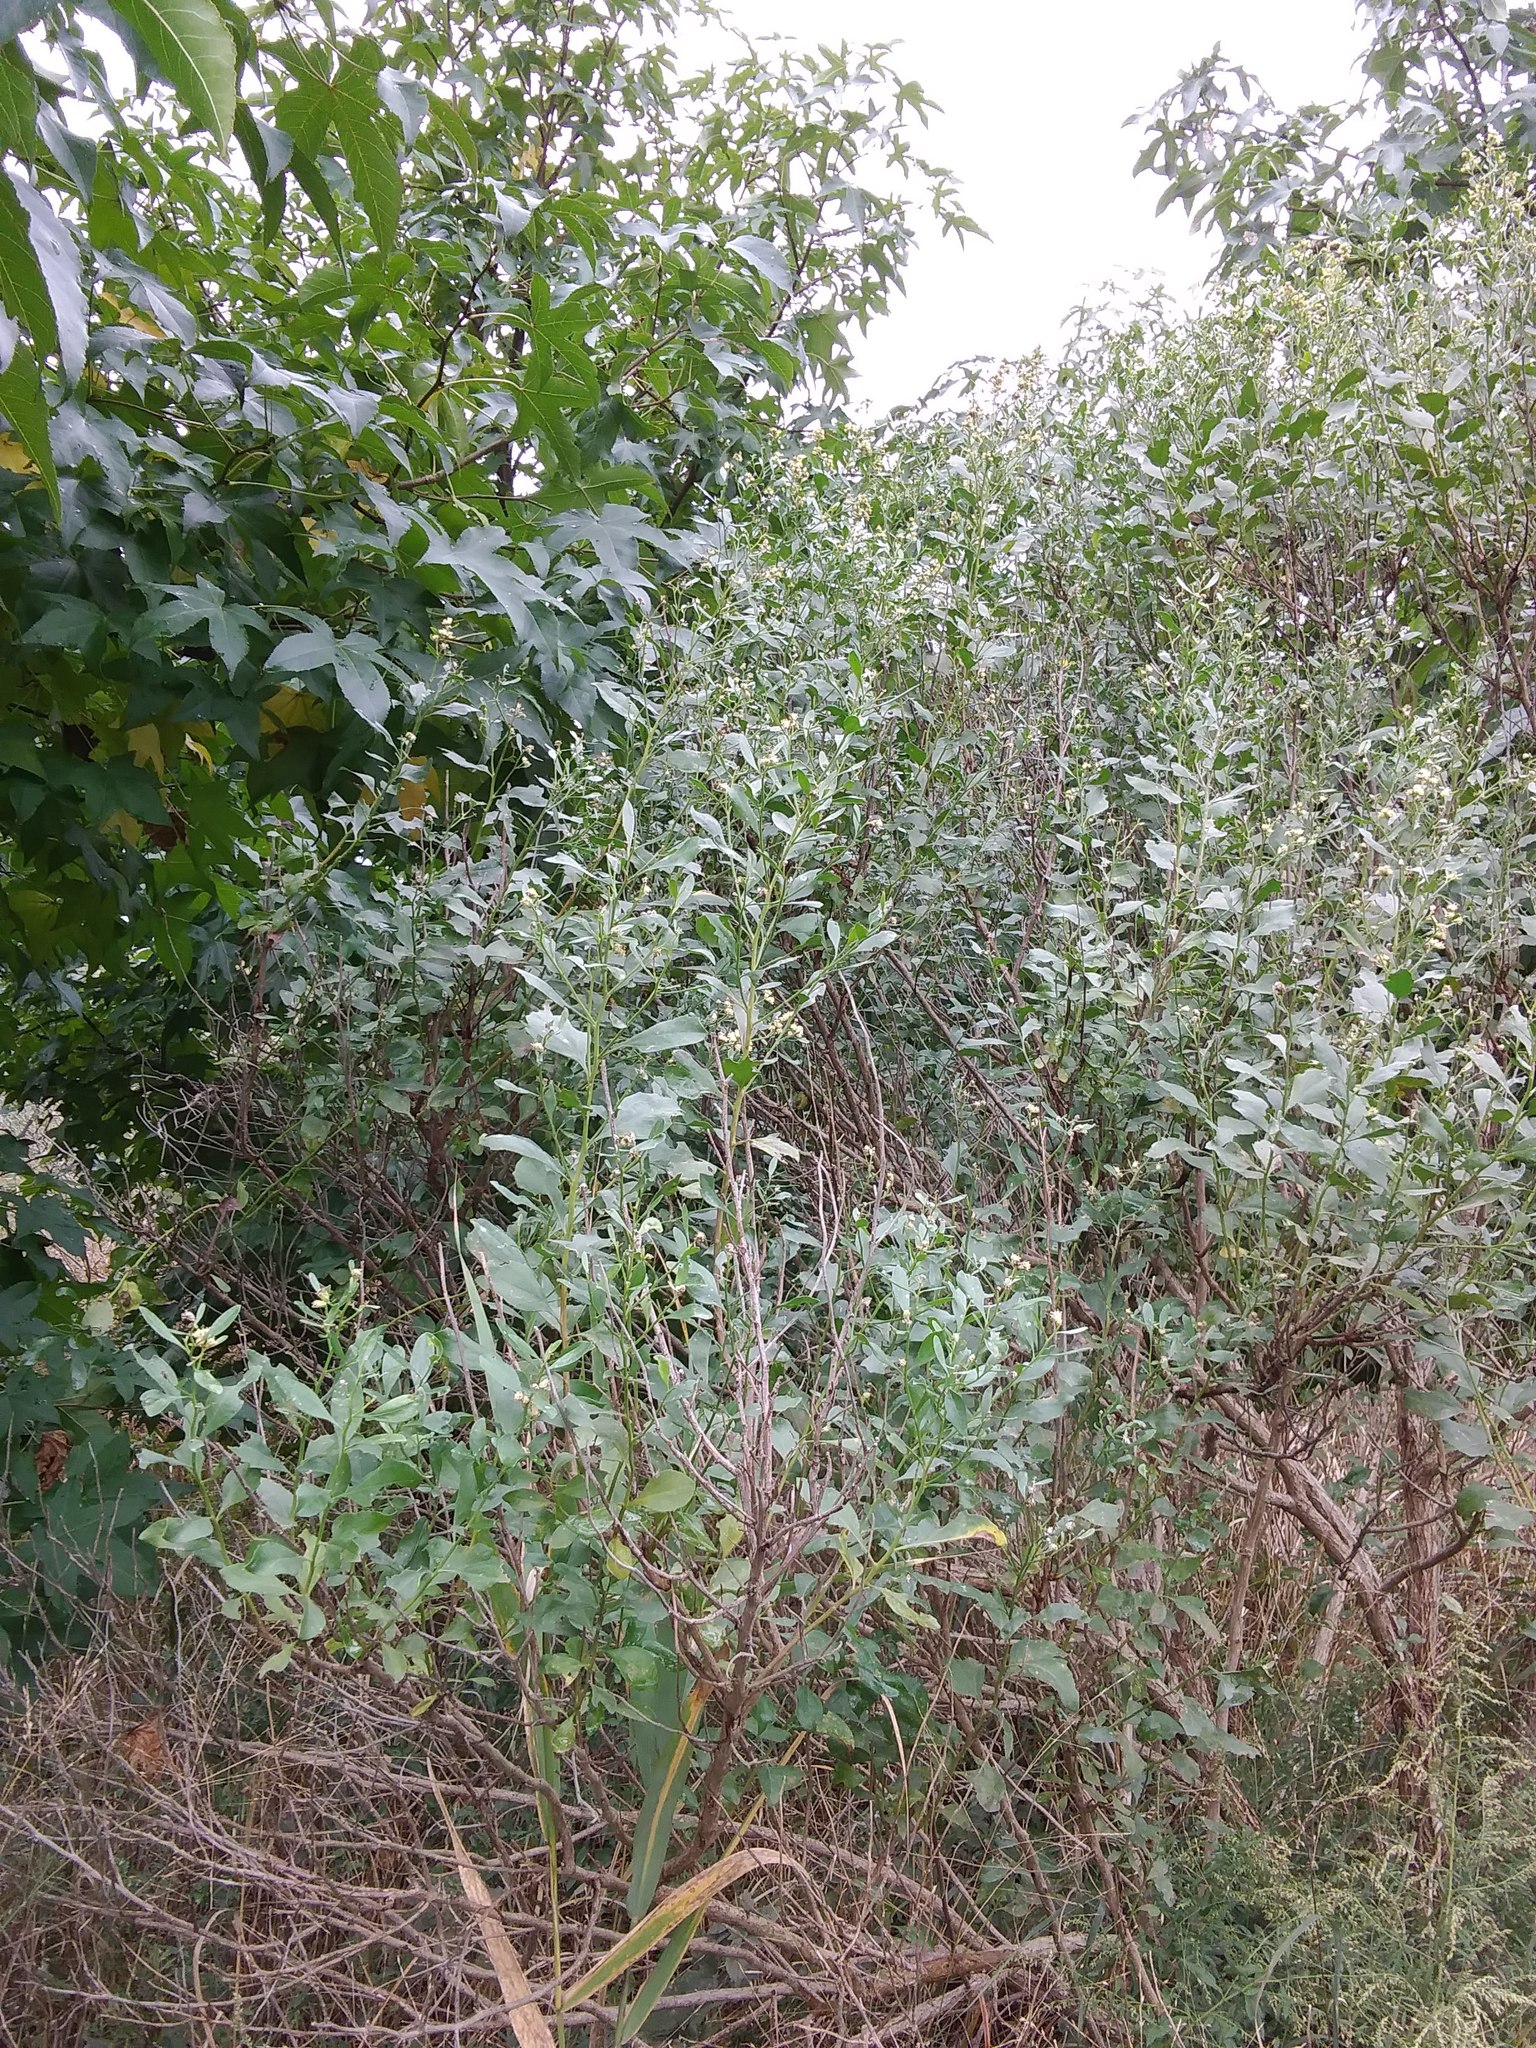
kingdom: Plantae
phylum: Tracheophyta
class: Magnoliopsida
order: Asterales
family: Asteraceae
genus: Baccharis
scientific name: Baccharis halimifolia
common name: Eastern baccharis
